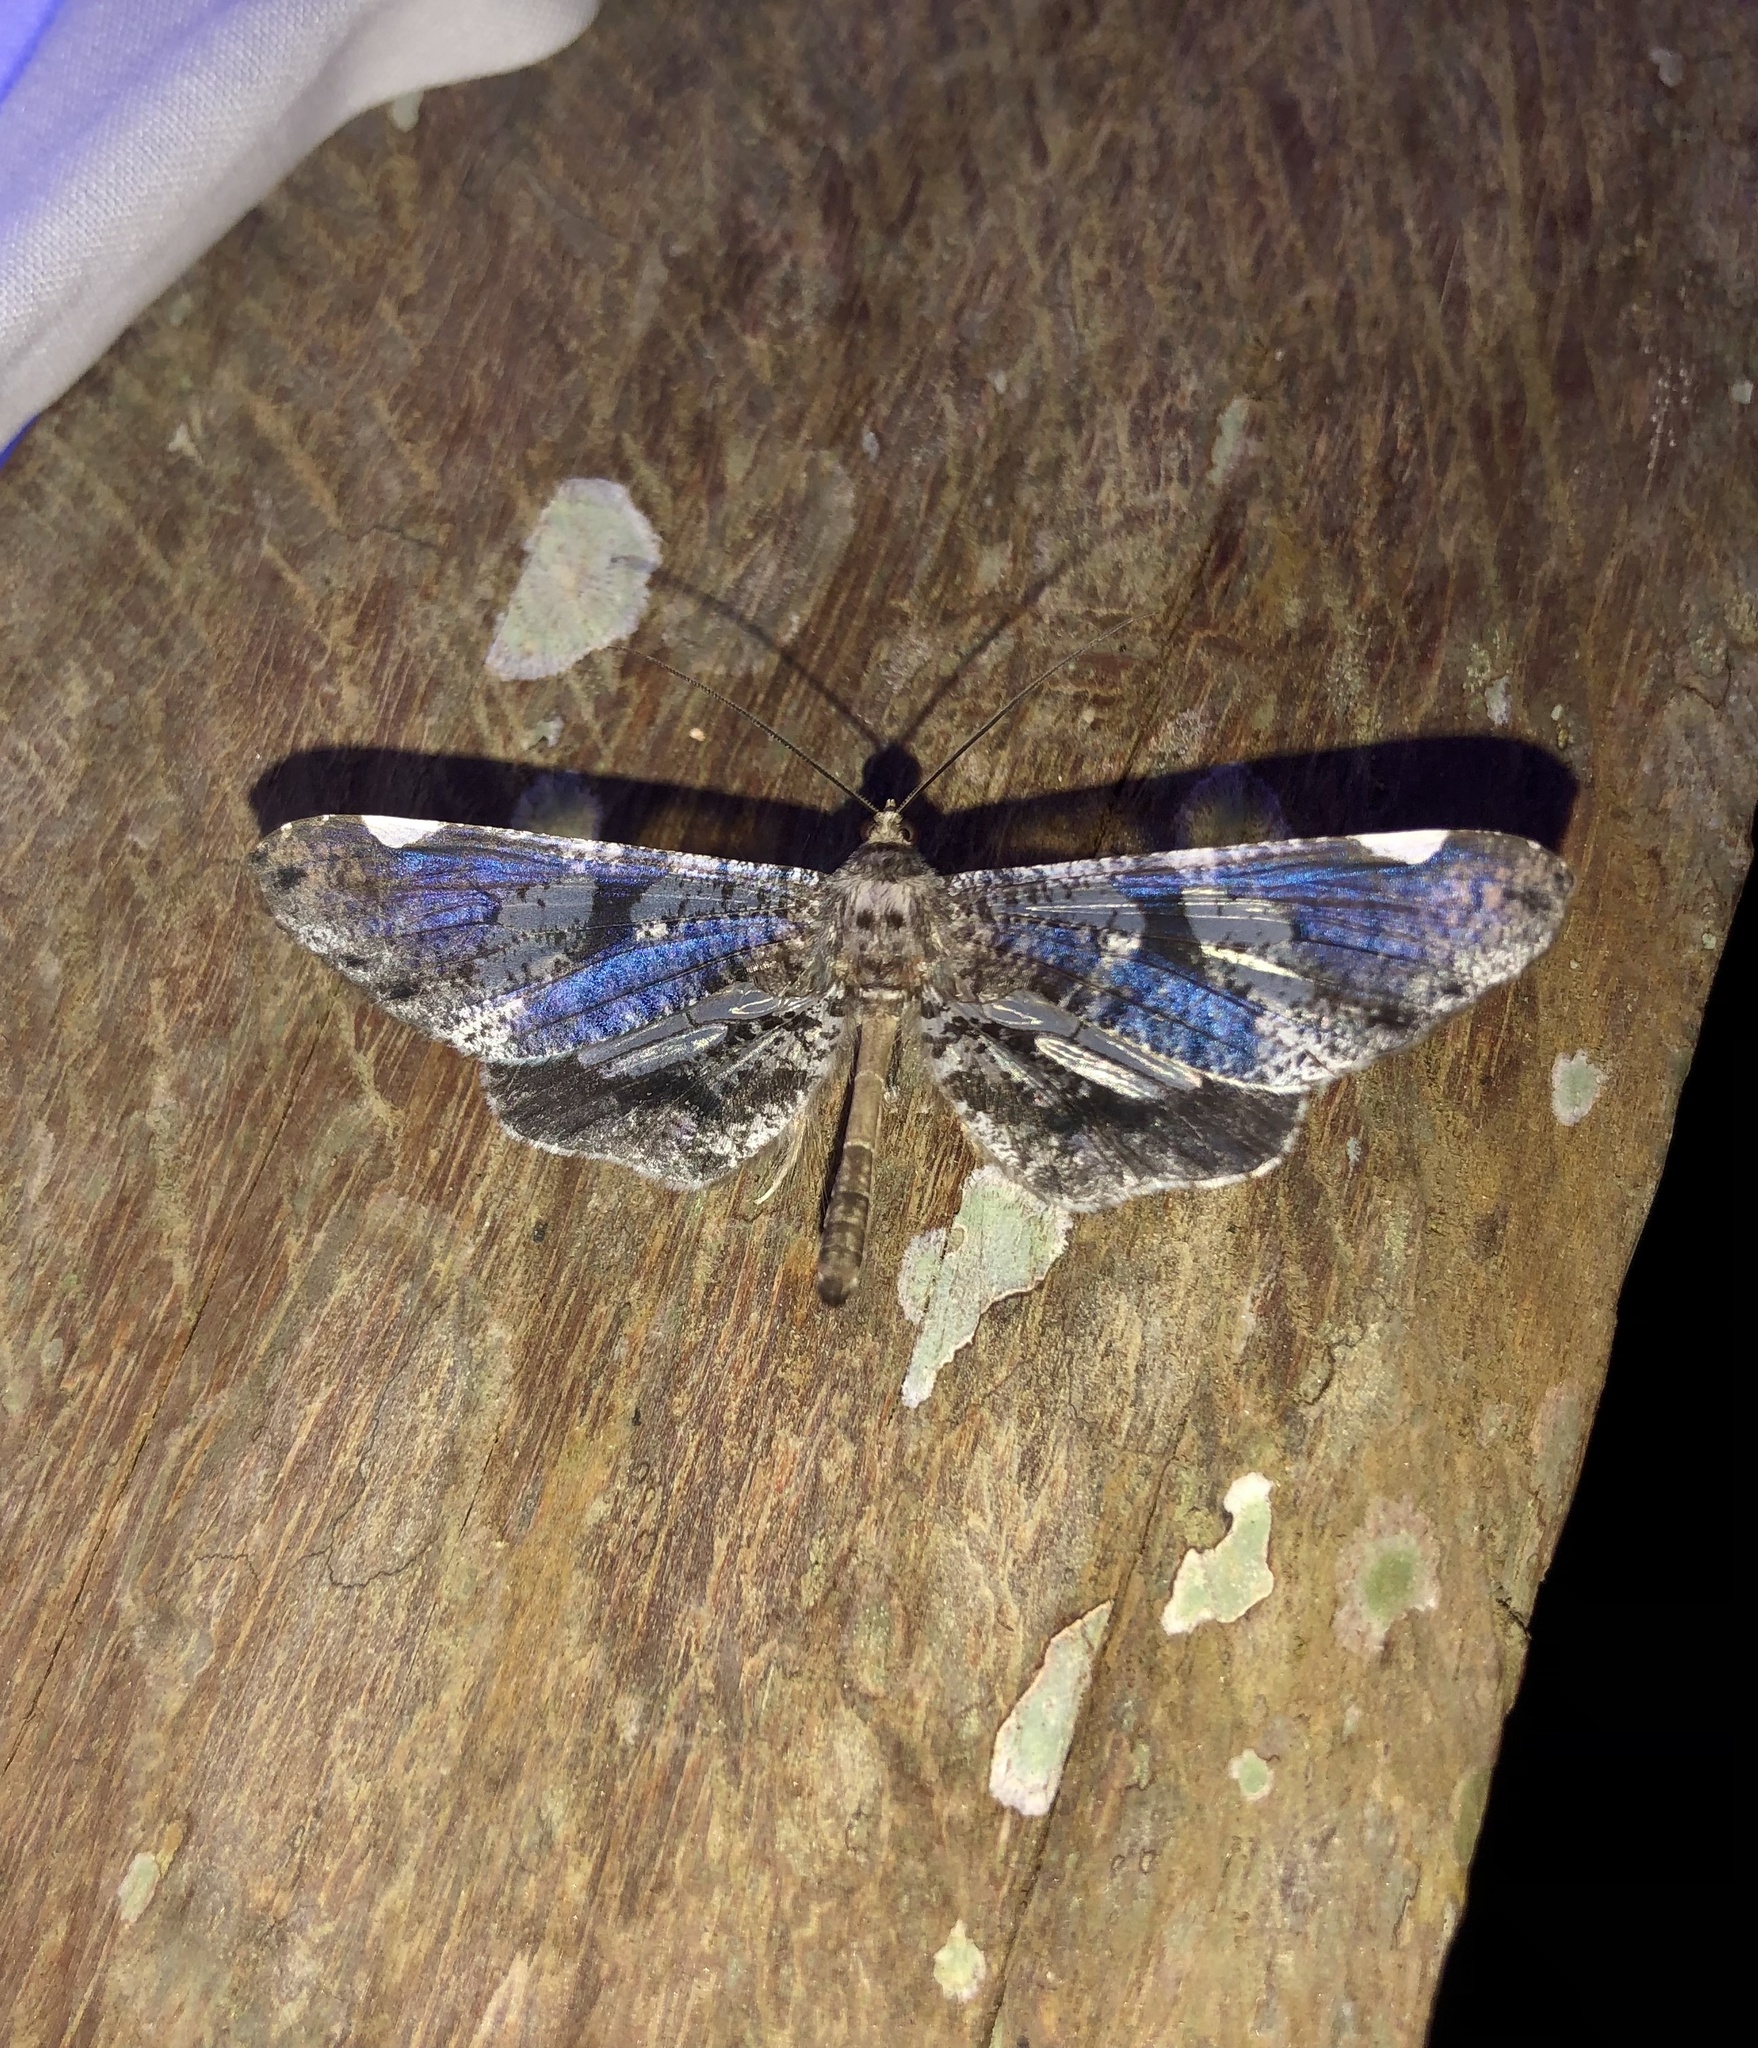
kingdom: Animalia
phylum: Arthropoda
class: Insecta
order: Lepidoptera
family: Hedylidae
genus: Macrosoma
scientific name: Macrosoma hyacinthina
